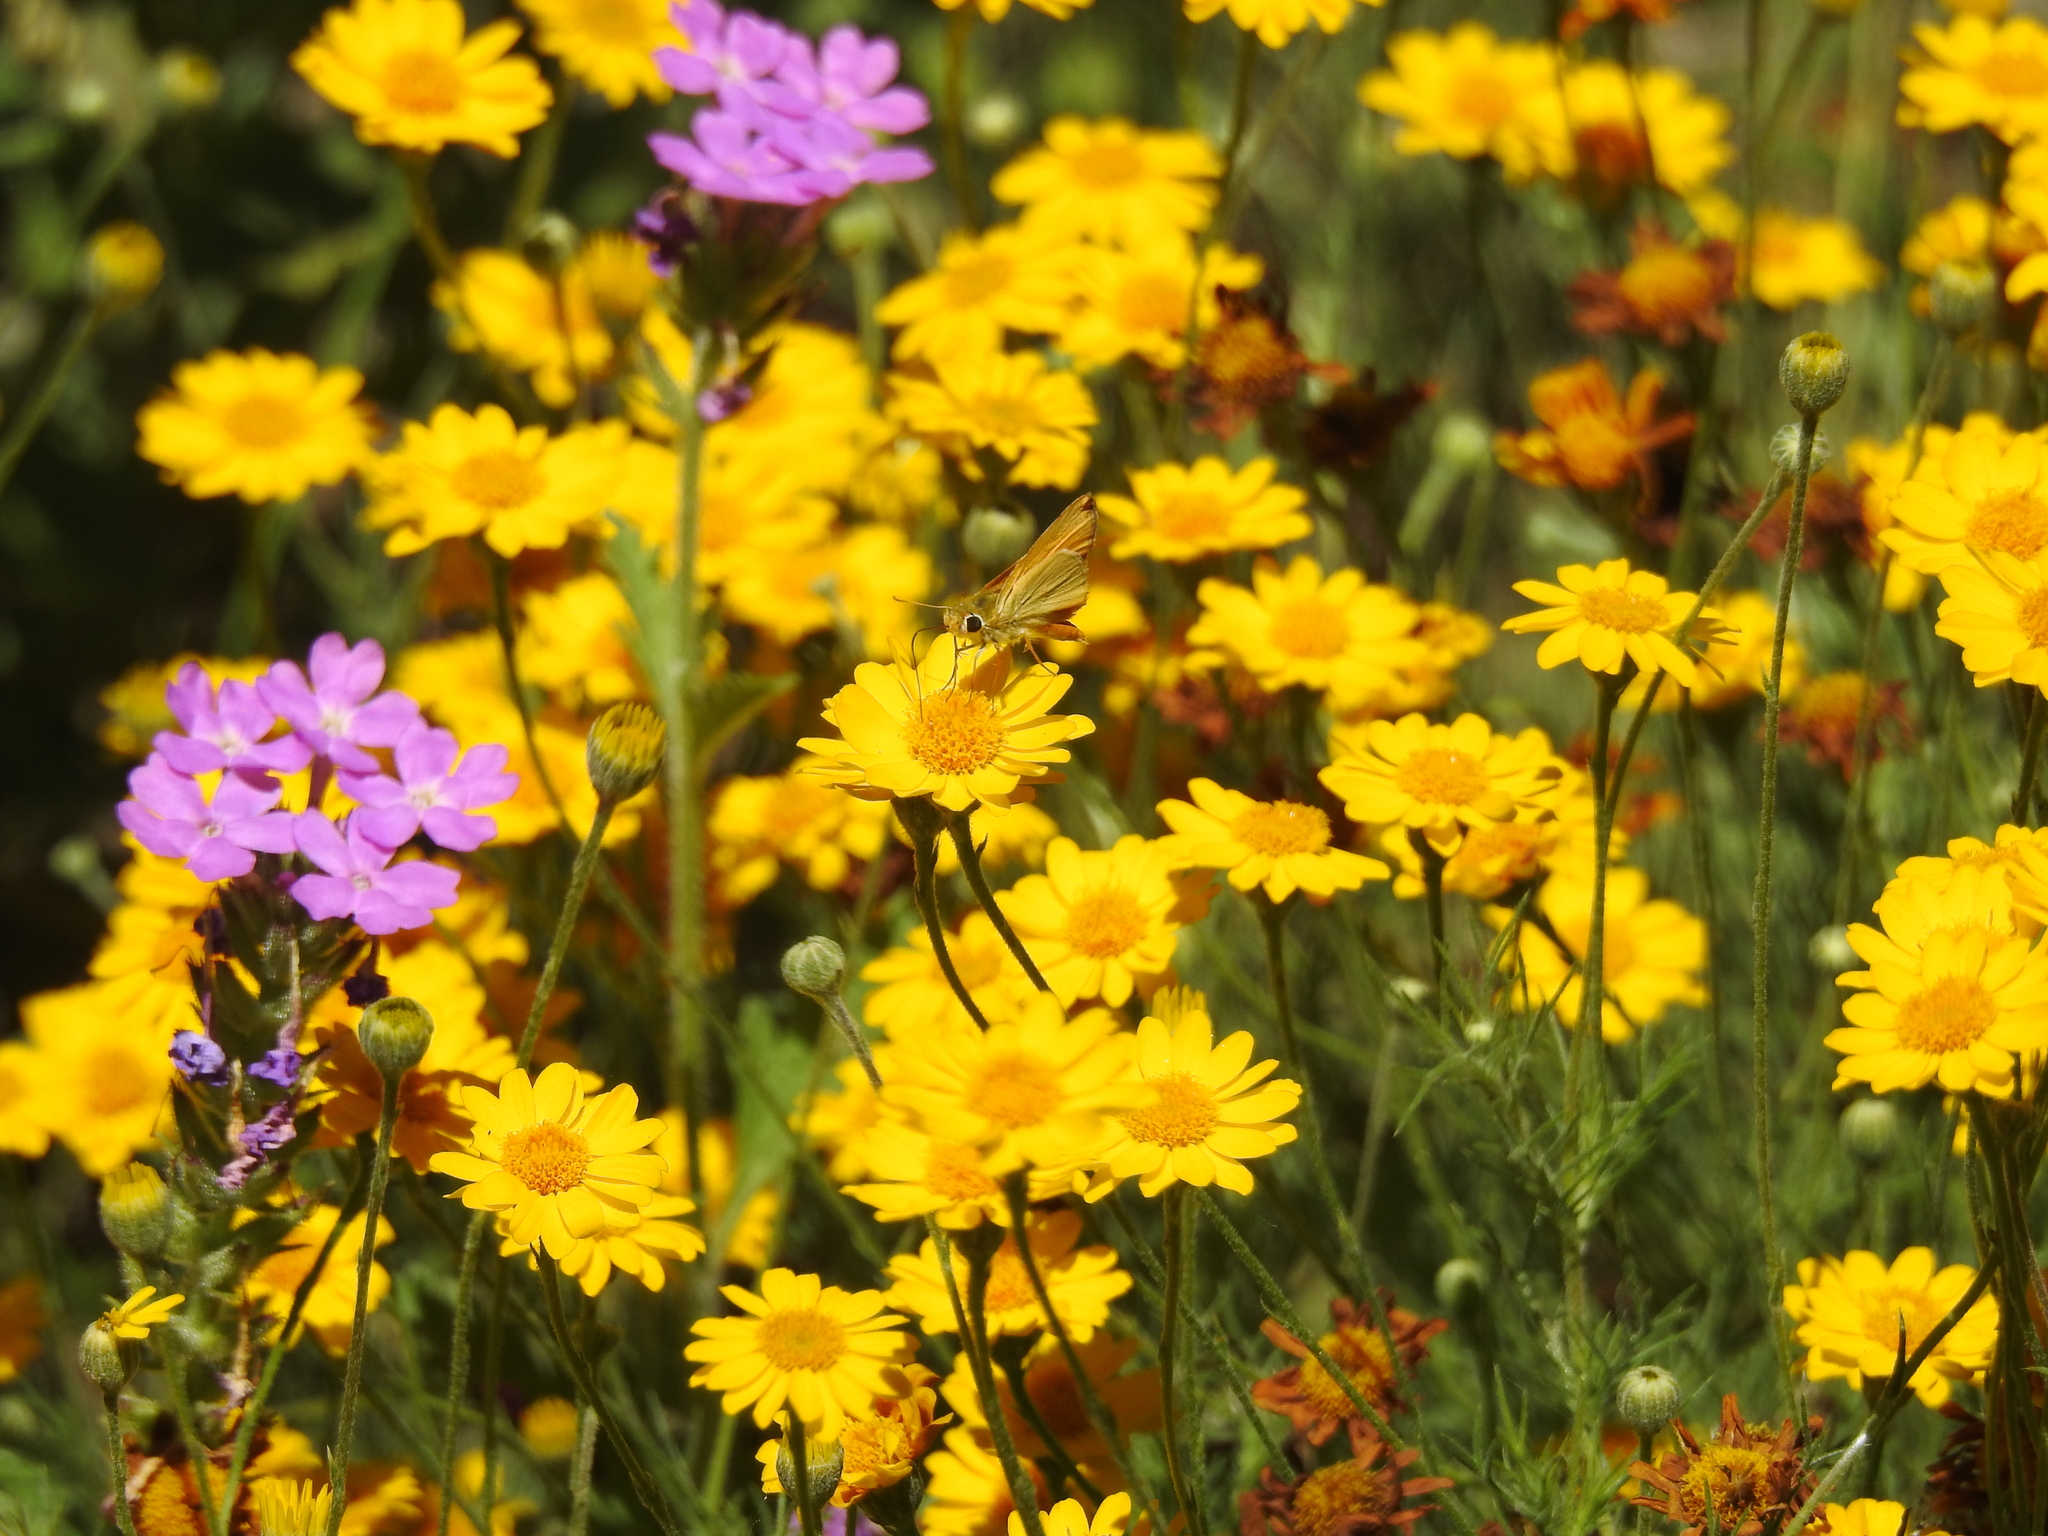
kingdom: Animalia
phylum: Arthropoda
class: Insecta
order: Lepidoptera
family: Hesperiidae
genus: Hylephila
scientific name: Hylephila phyleus
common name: Fiery skipper
